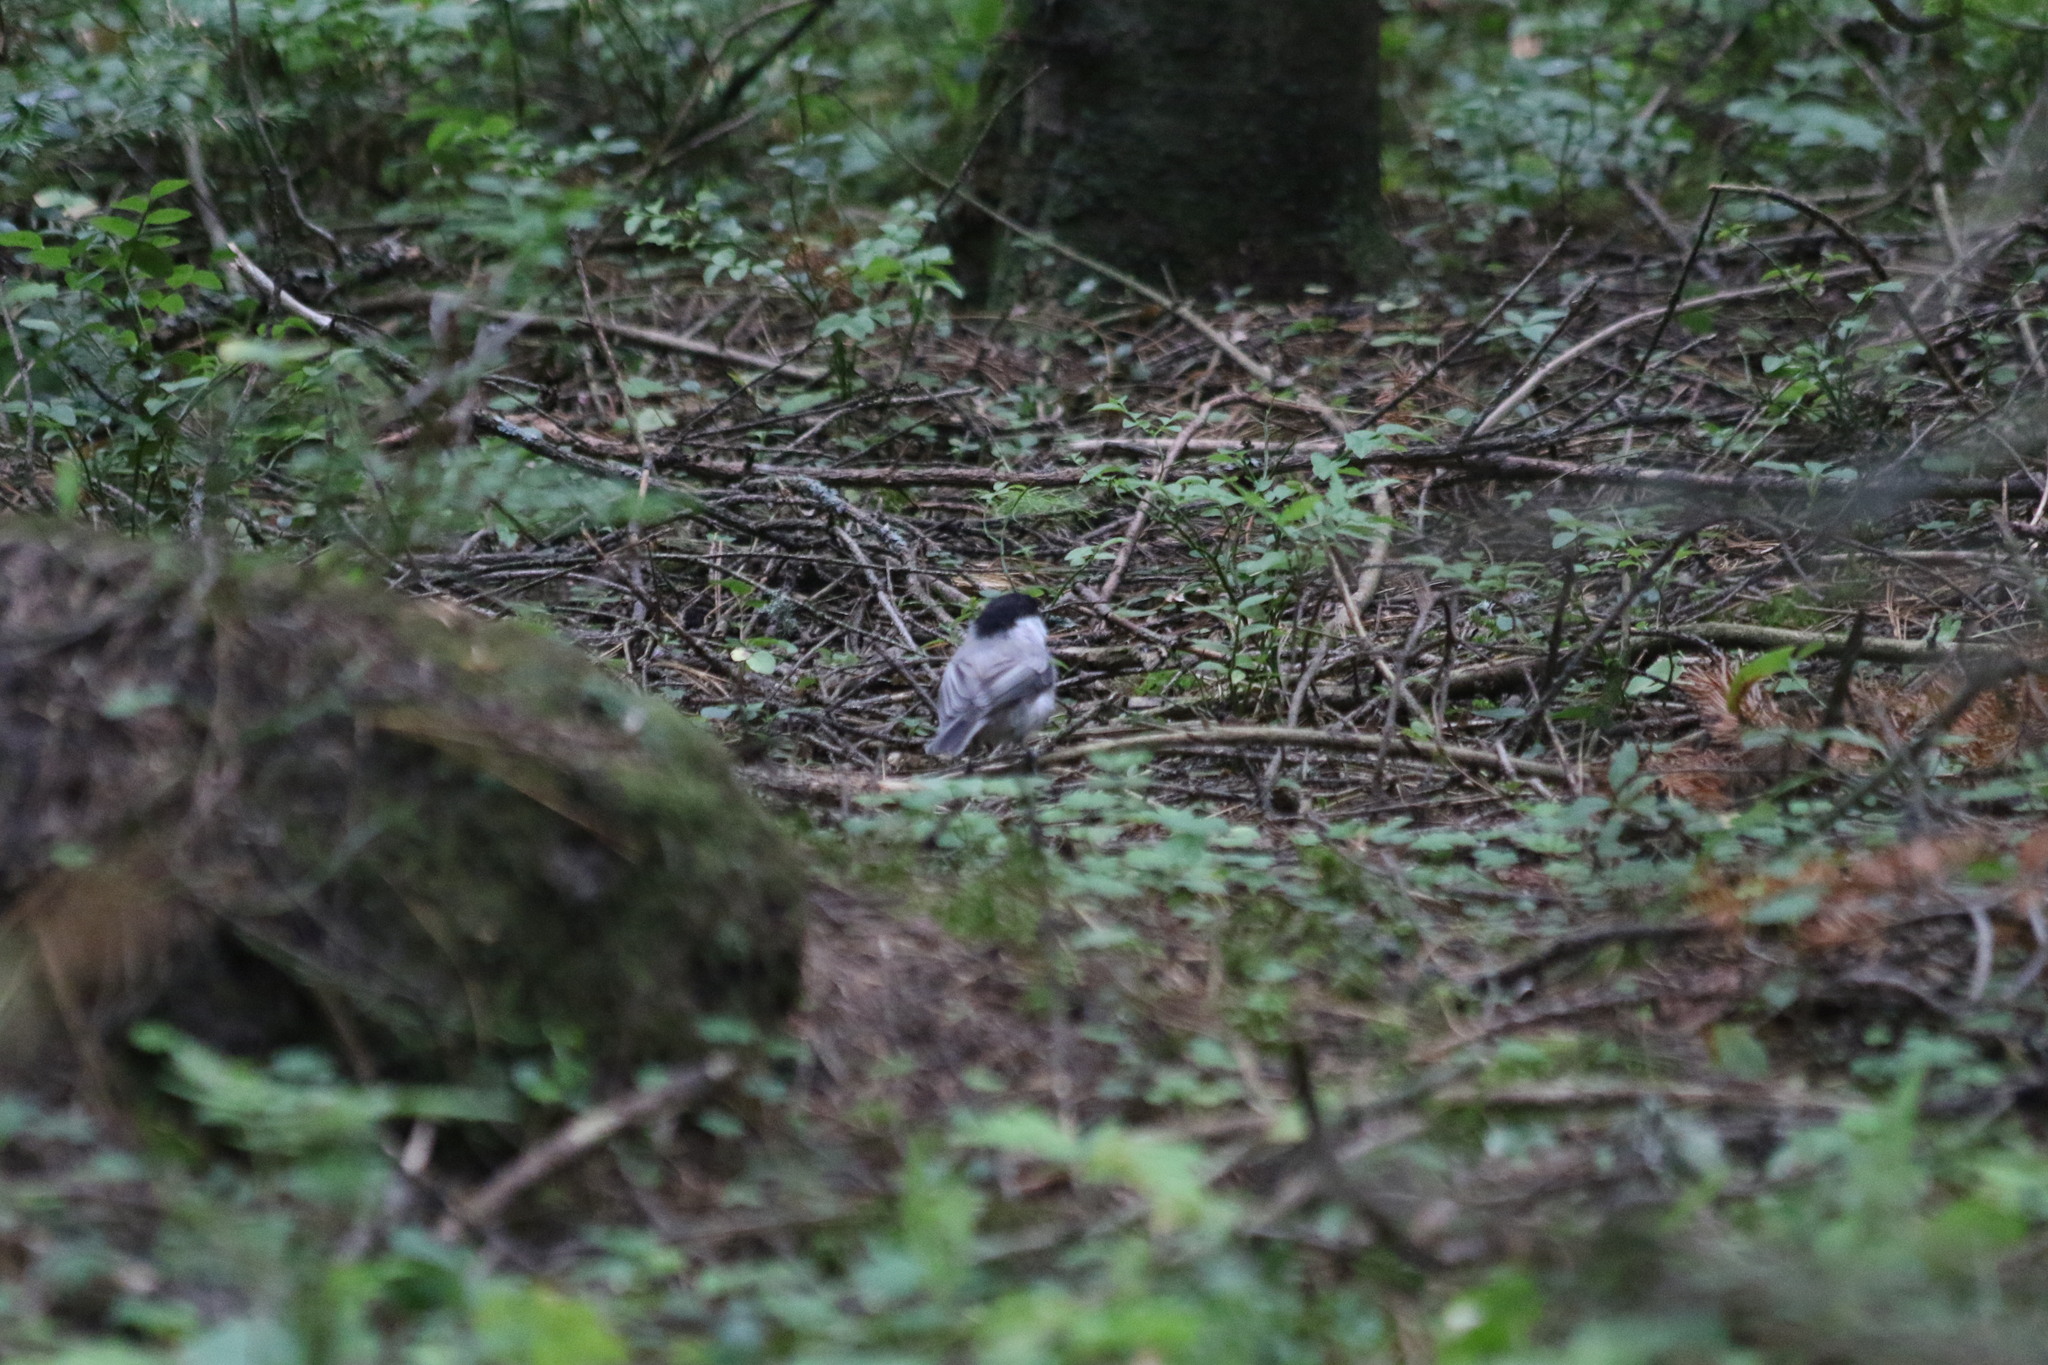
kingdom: Animalia
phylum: Chordata
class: Aves
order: Passeriformes
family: Paridae
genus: Poecile
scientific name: Poecile montanus
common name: Willow tit
